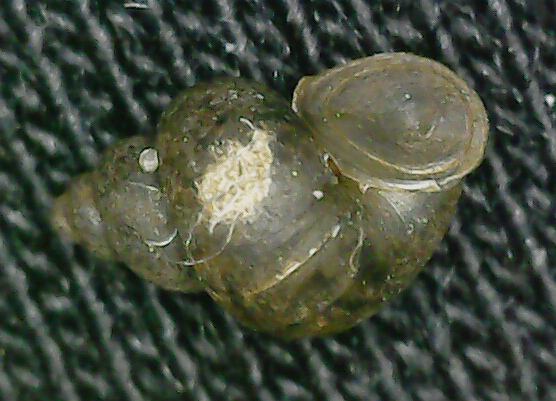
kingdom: Animalia
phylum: Mollusca
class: Gastropoda
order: Littorinimorpha
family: Bithyniidae
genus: Bithynia
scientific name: Bithynia leachii
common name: Leach's bithynia
